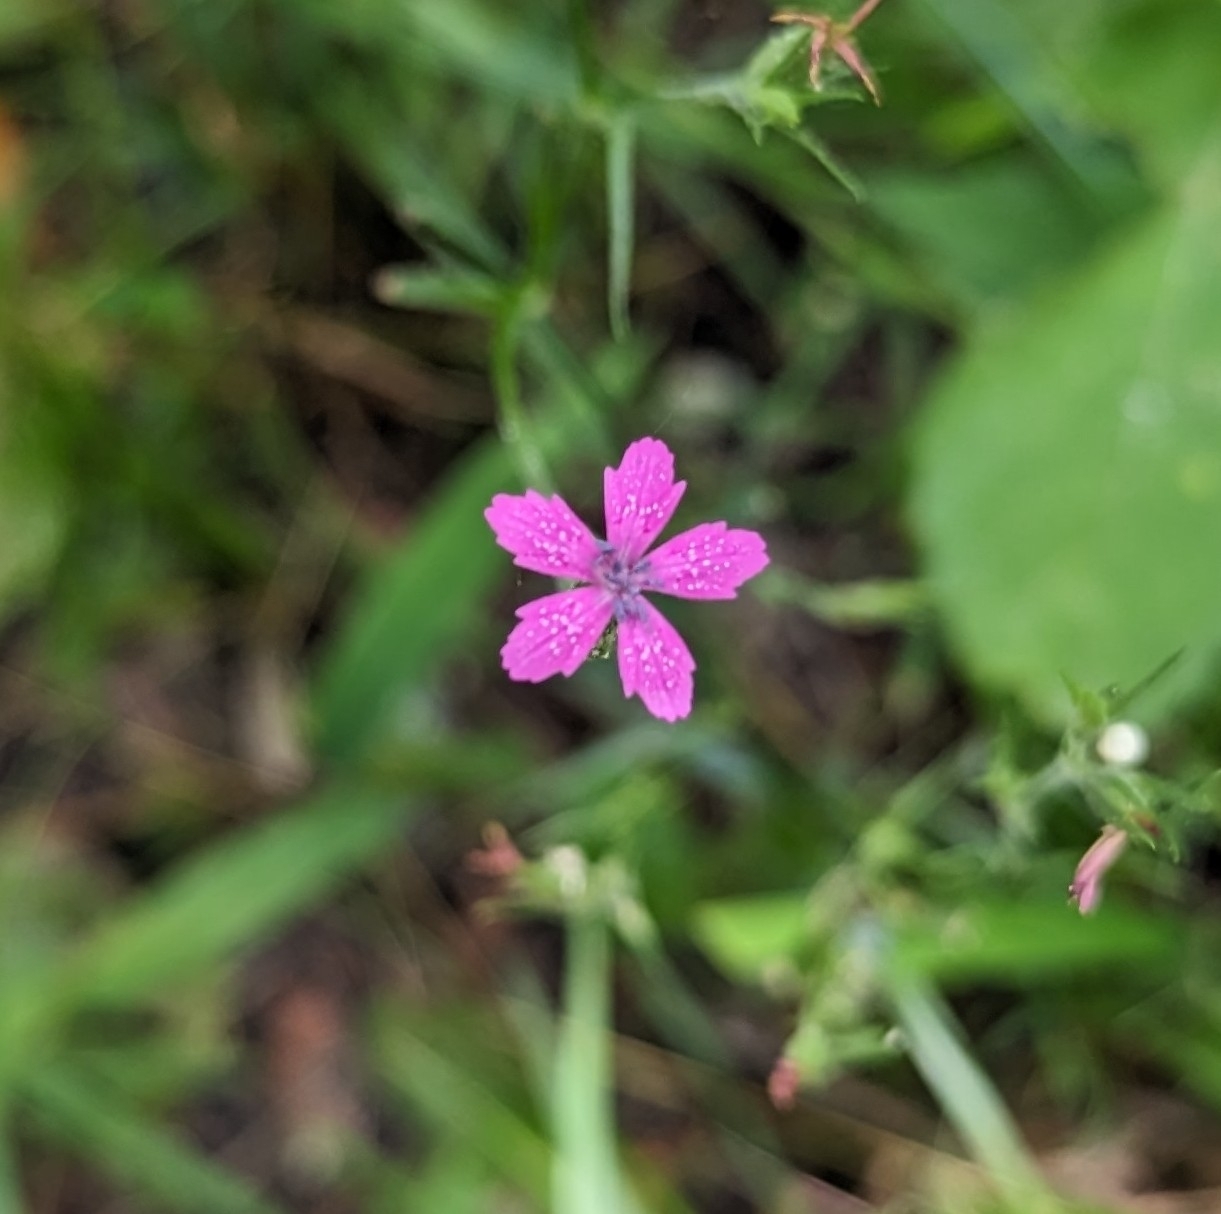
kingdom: Plantae
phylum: Tracheophyta
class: Magnoliopsida
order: Caryophyllales
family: Caryophyllaceae
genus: Dianthus
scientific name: Dianthus armeria
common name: Deptford pink
